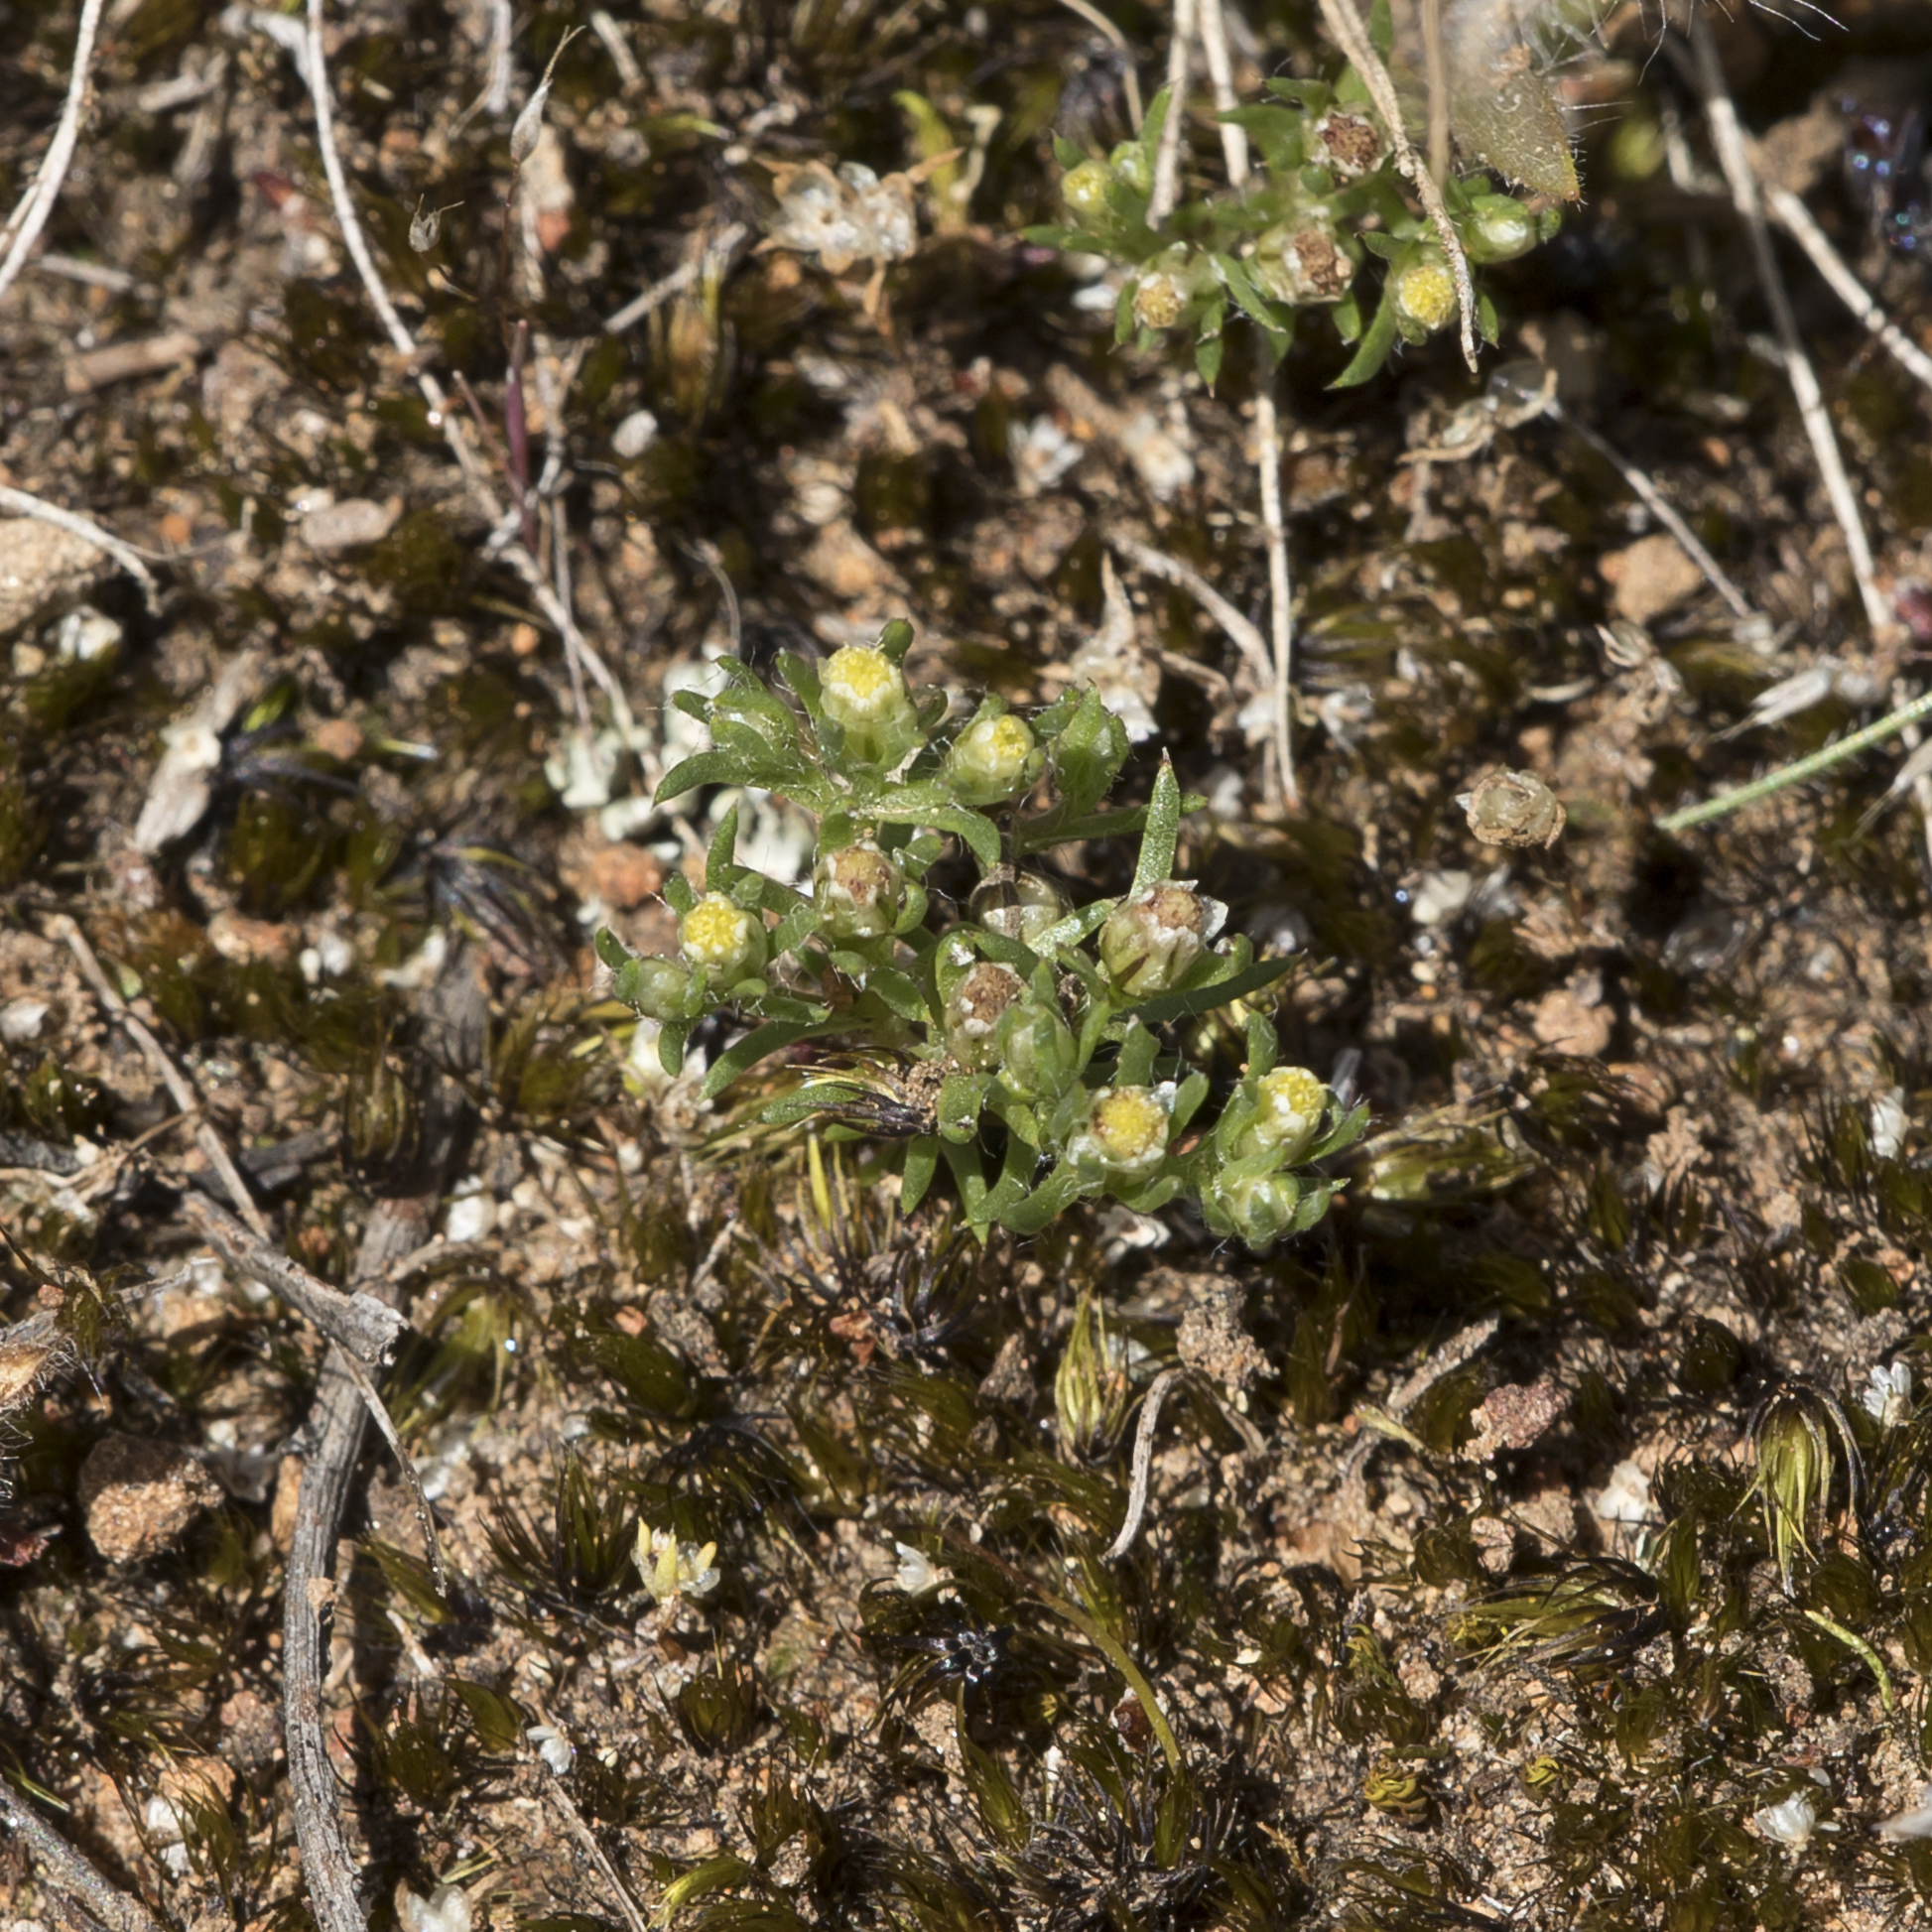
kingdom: Plantae
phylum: Tracheophyta
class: Magnoliopsida
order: Asterales
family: Asteraceae
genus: Hyalosperma
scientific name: Hyalosperma demissum
